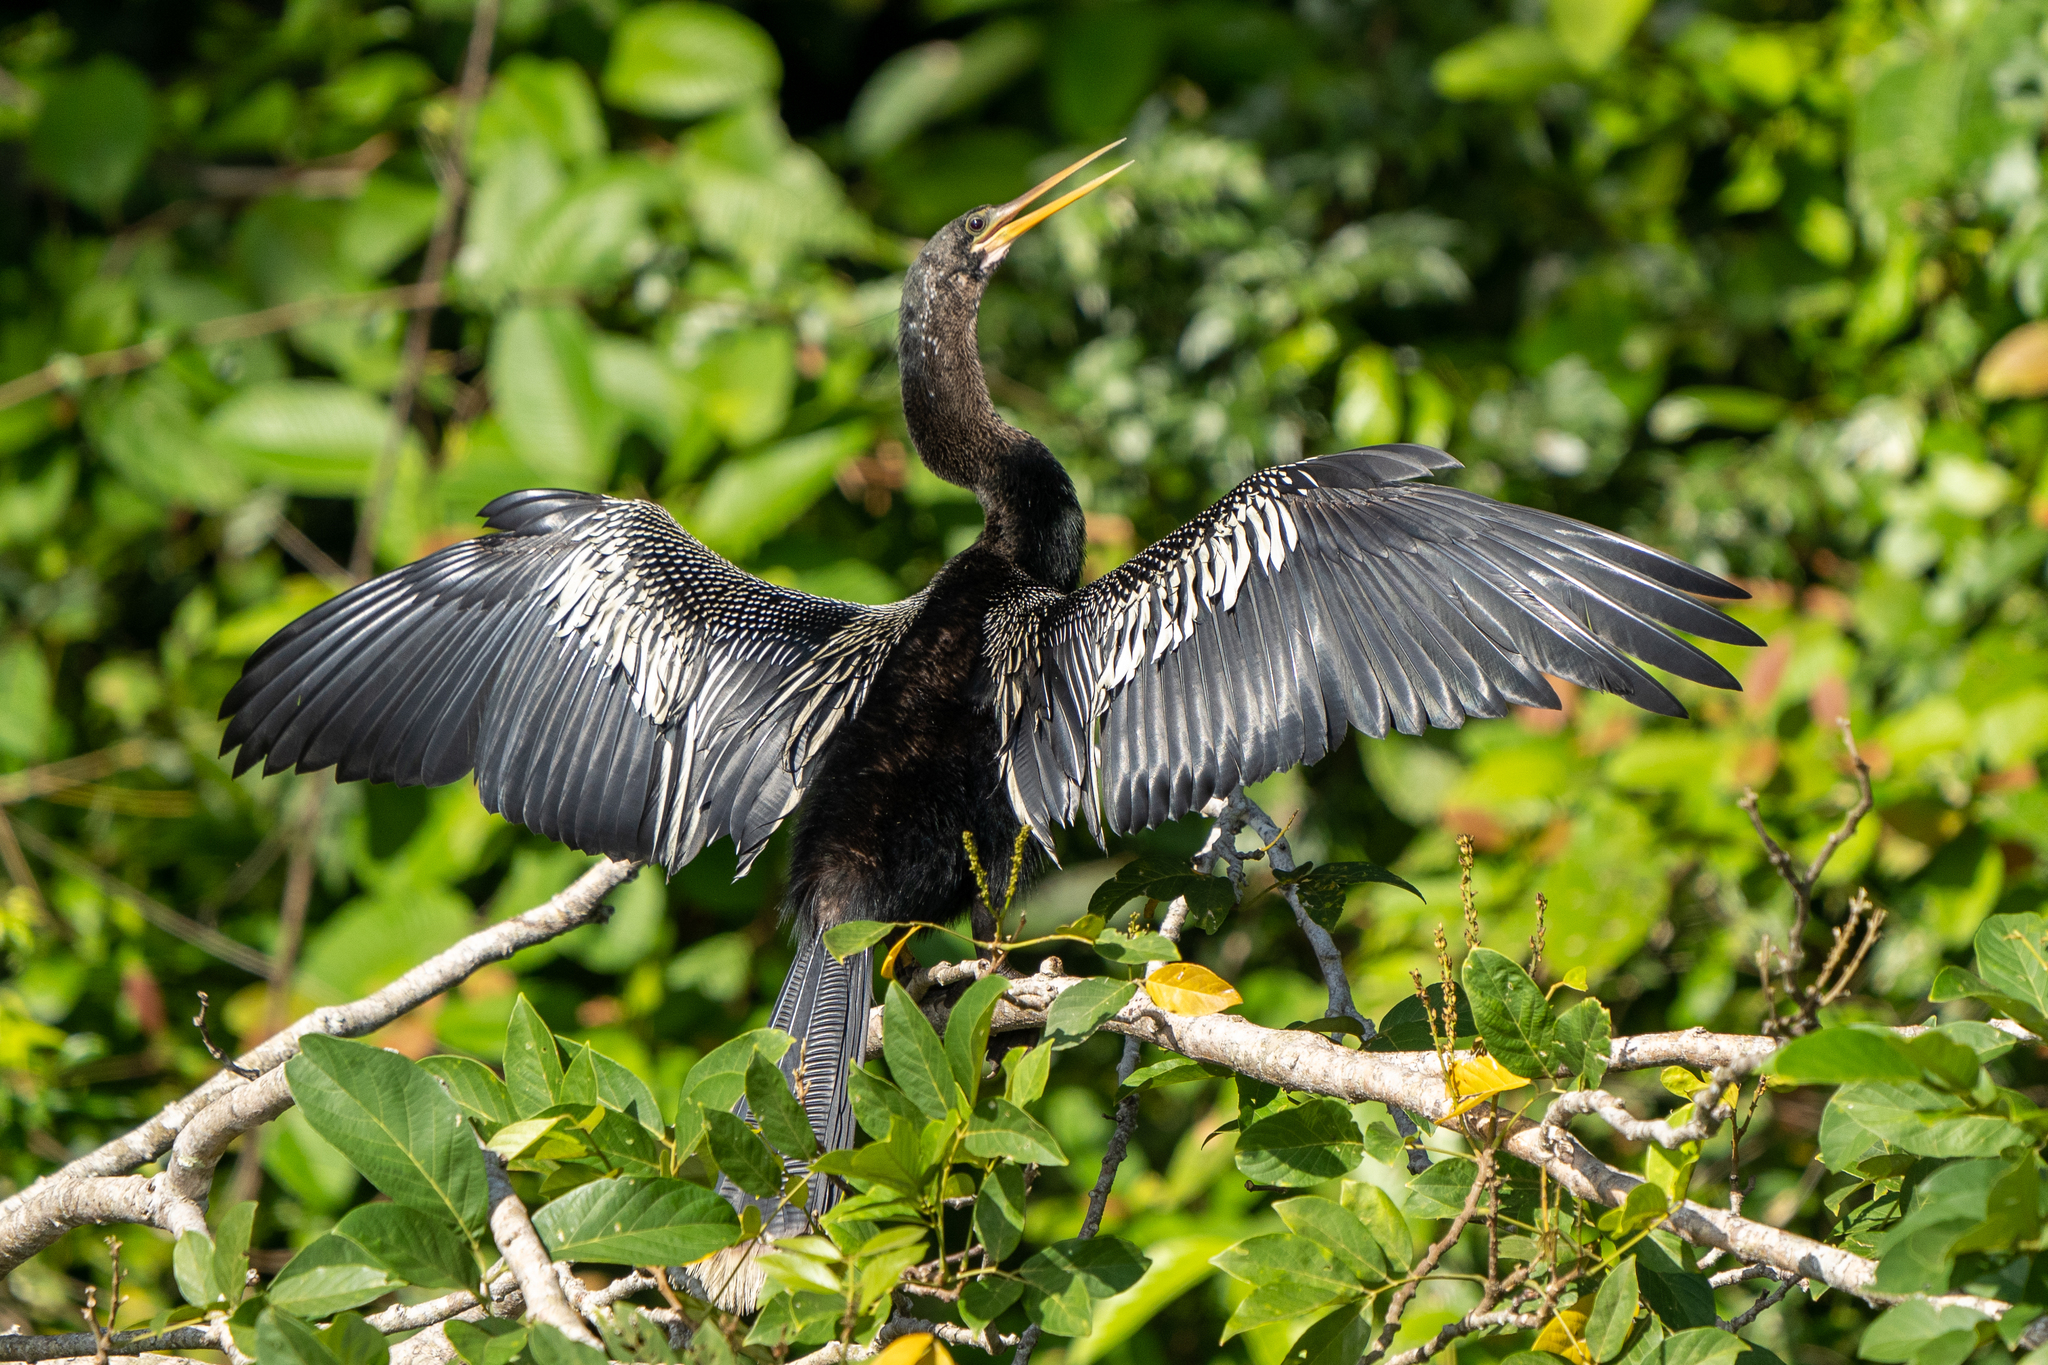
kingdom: Animalia
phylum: Chordata
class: Aves
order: Suliformes
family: Anhingidae
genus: Anhinga
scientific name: Anhinga anhinga
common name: Anhinga
